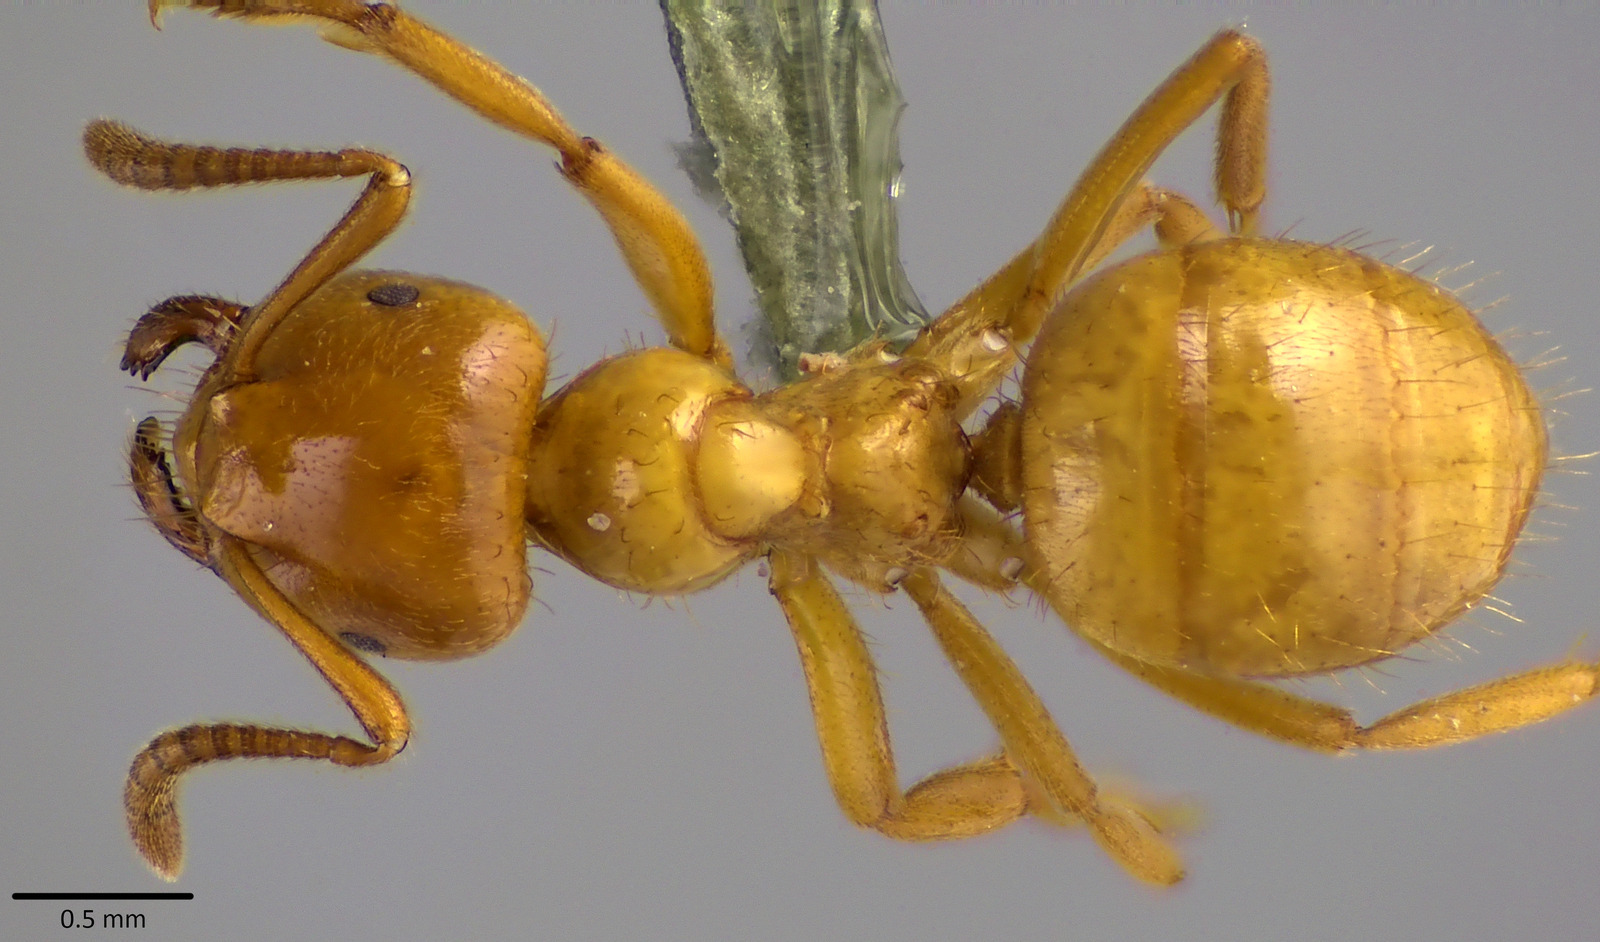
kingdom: Animalia
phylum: Arthropoda
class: Insecta
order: Hymenoptera
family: Formicidae
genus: Lasius
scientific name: Lasius claviger
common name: Common citronella ant
